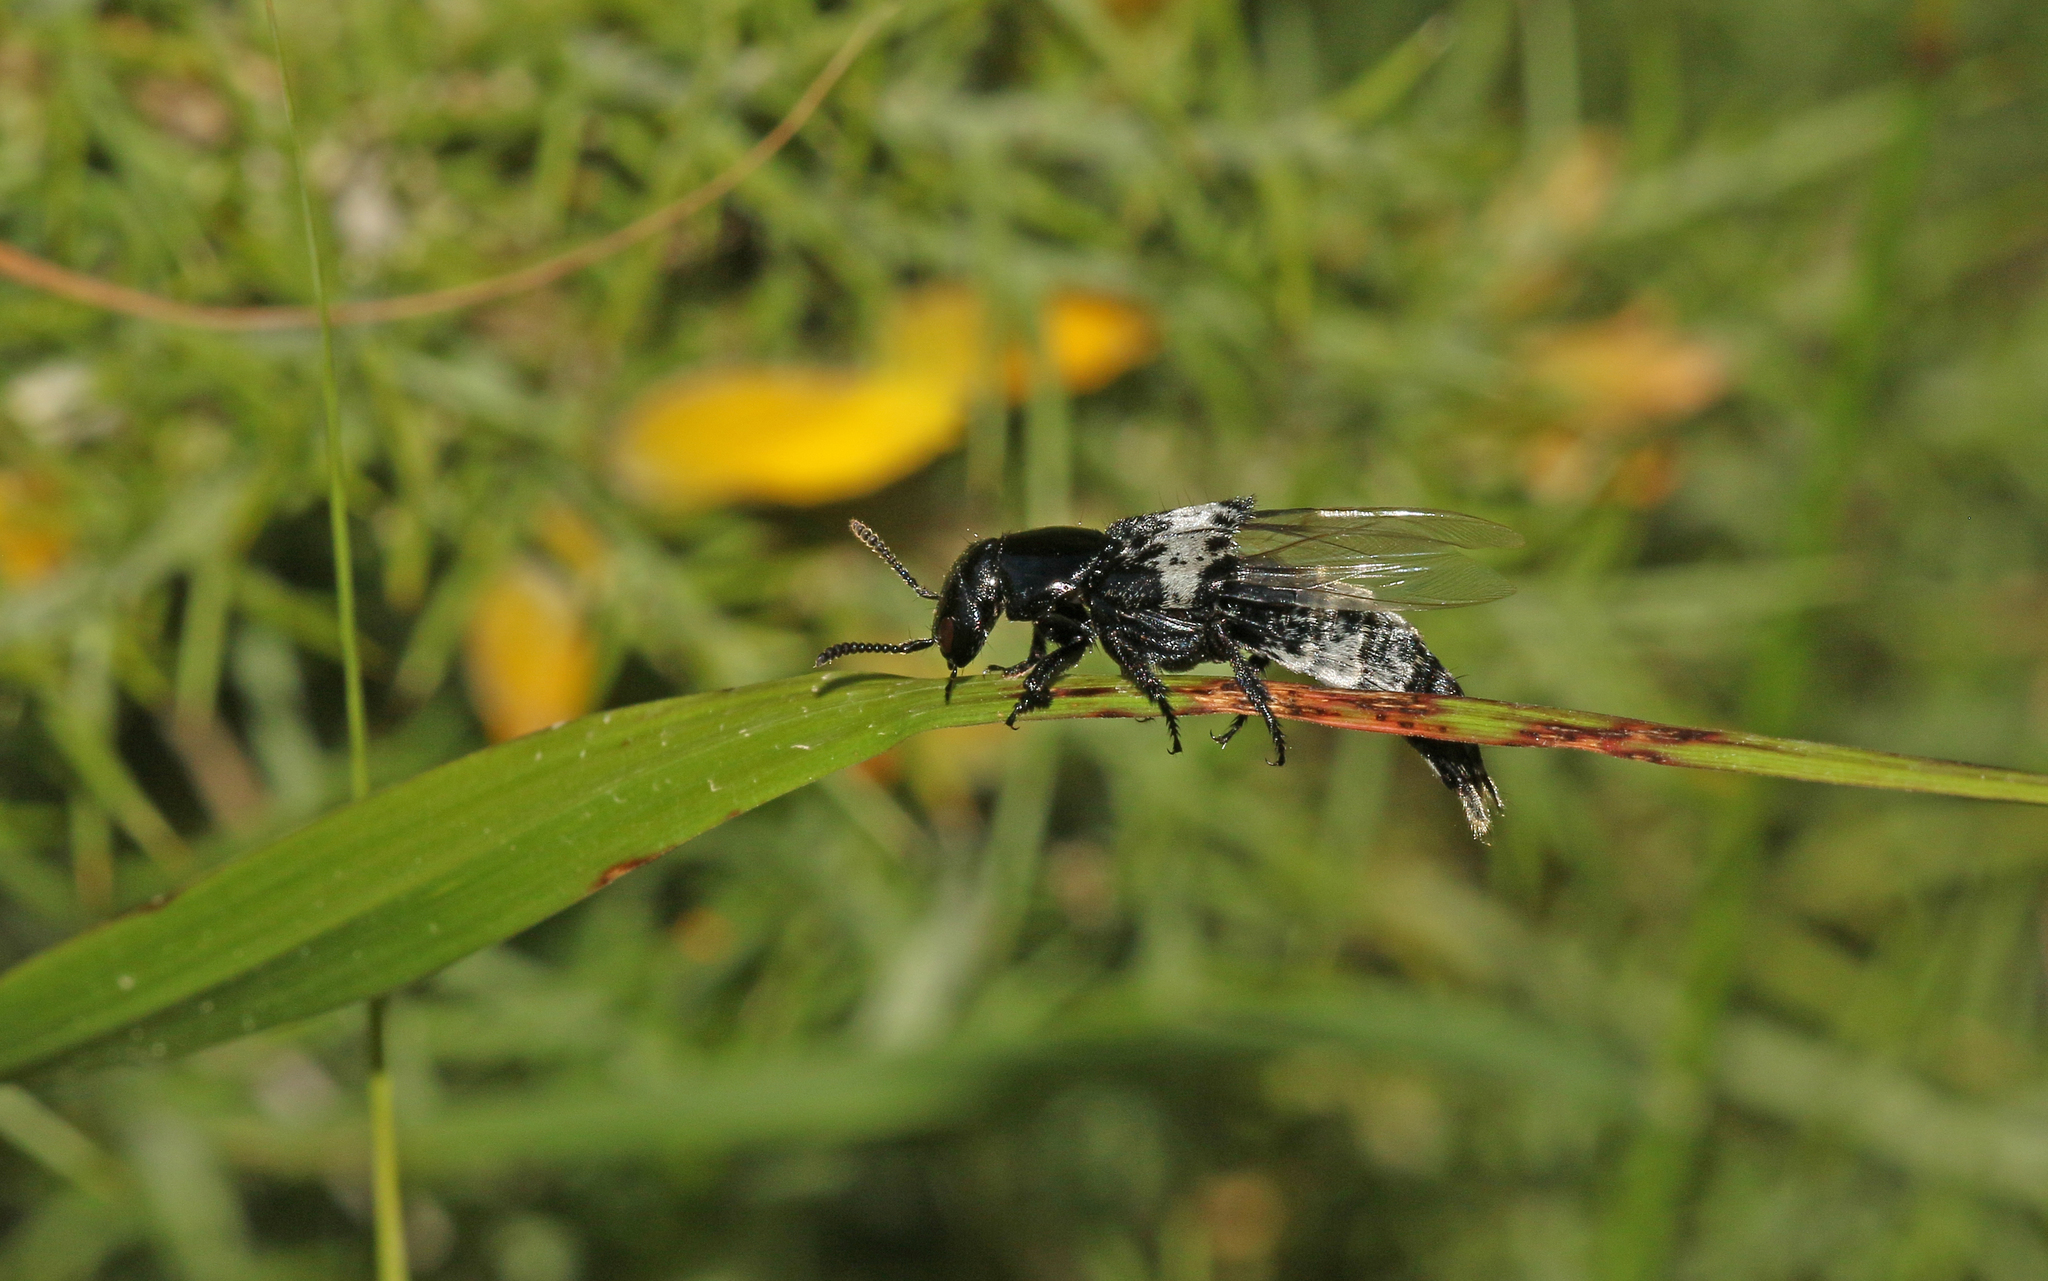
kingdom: Animalia
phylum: Arthropoda
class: Insecta
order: Coleoptera
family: Staphylinidae
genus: Creophilus
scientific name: Creophilus maxillosus
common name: Hairy rove beetle
